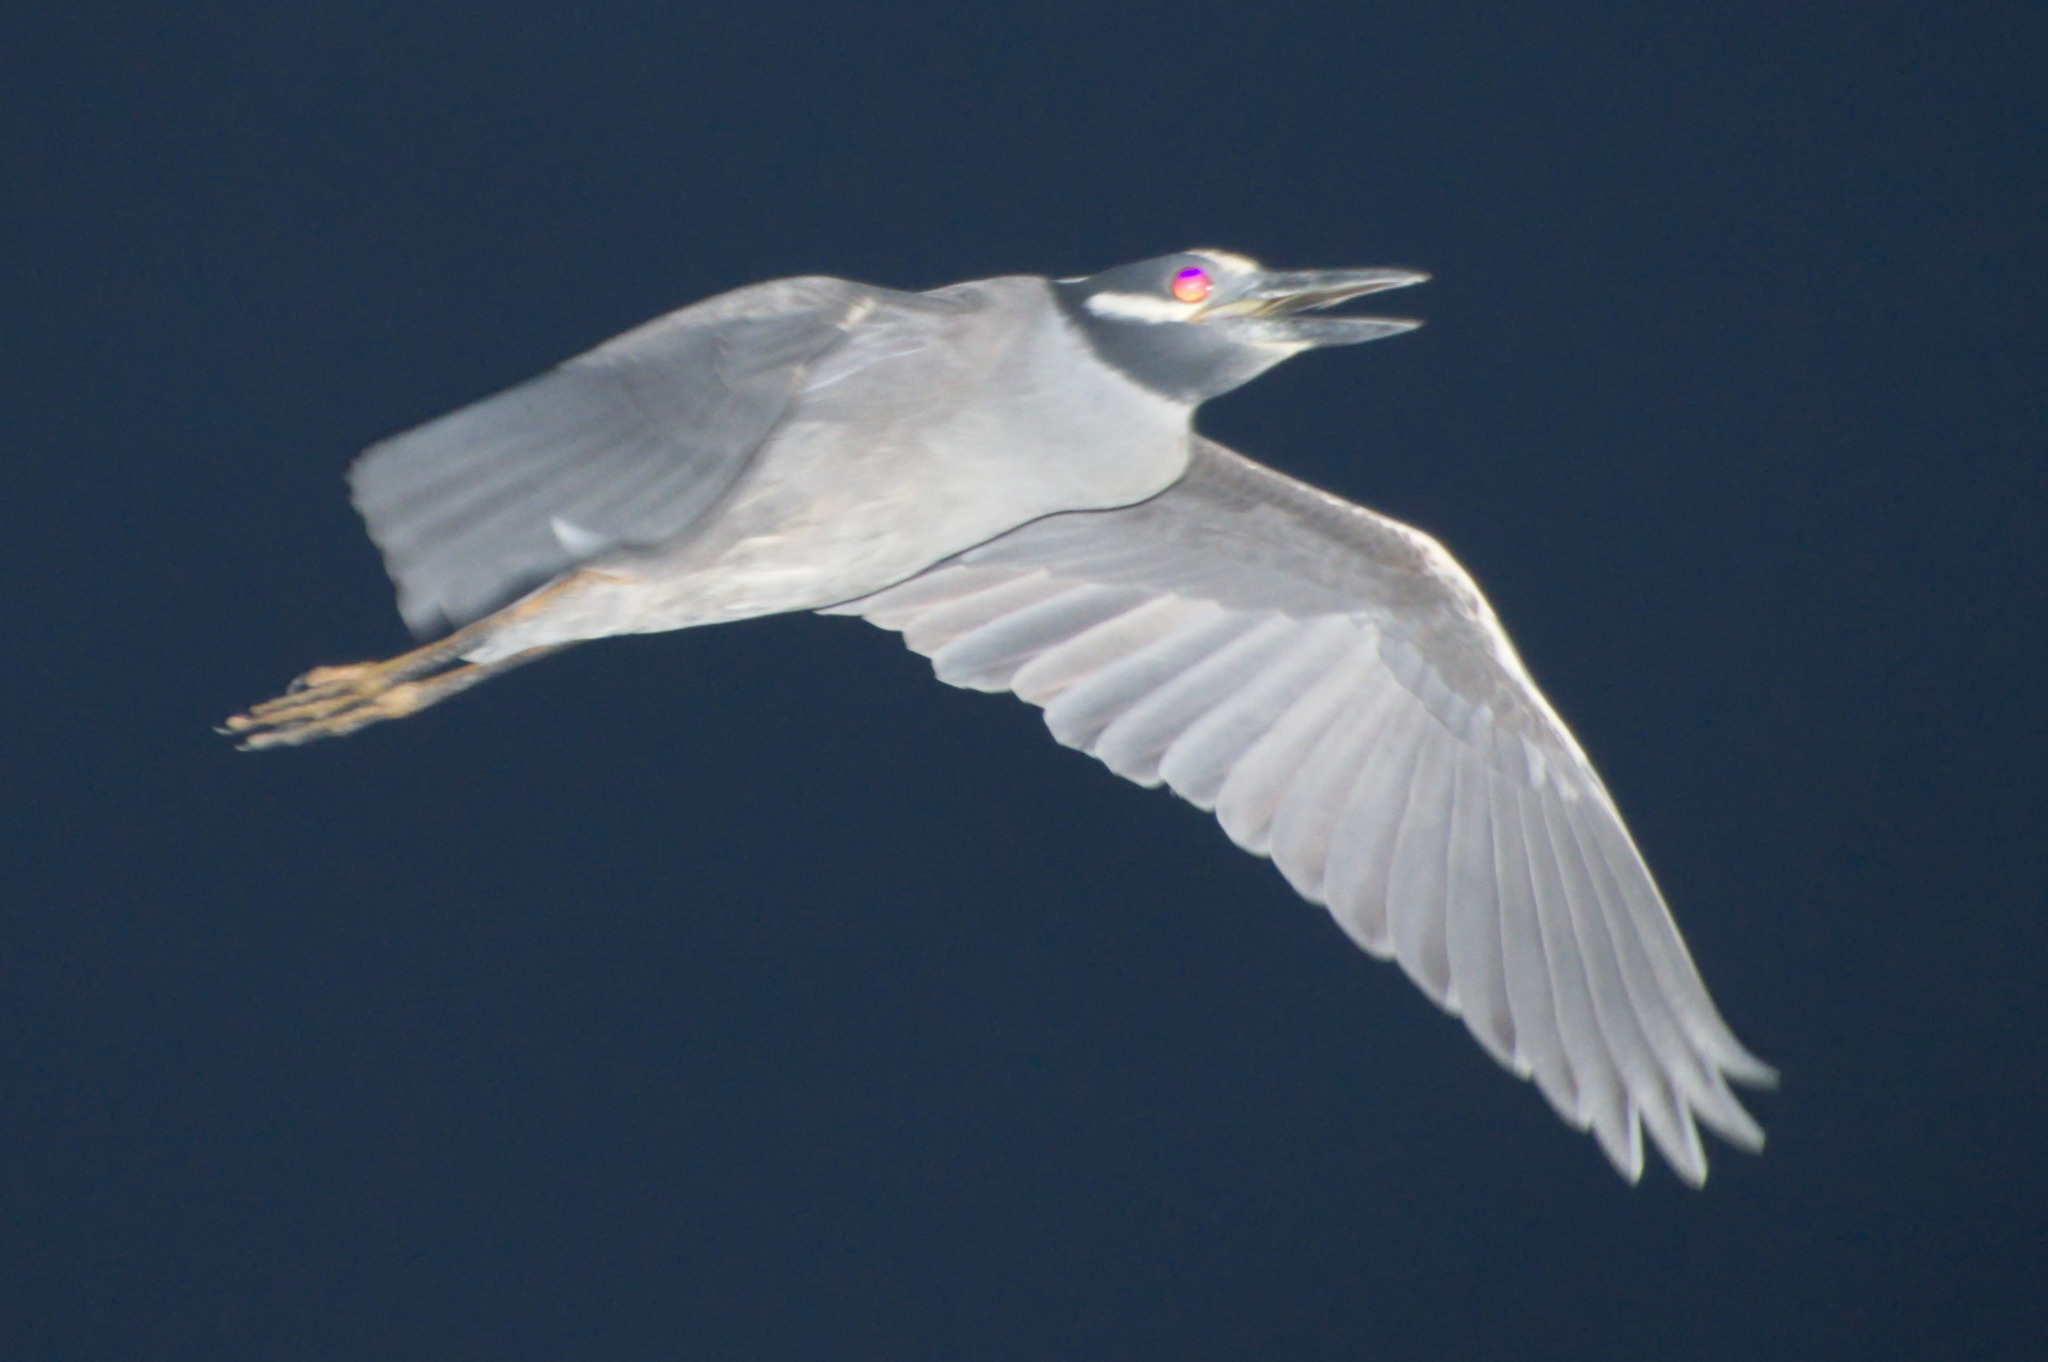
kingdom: Animalia
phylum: Chordata
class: Aves
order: Pelecaniformes
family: Ardeidae
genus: Nyctanassa
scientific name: Nyctanassa violacea
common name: Yellow-crowned night heron
